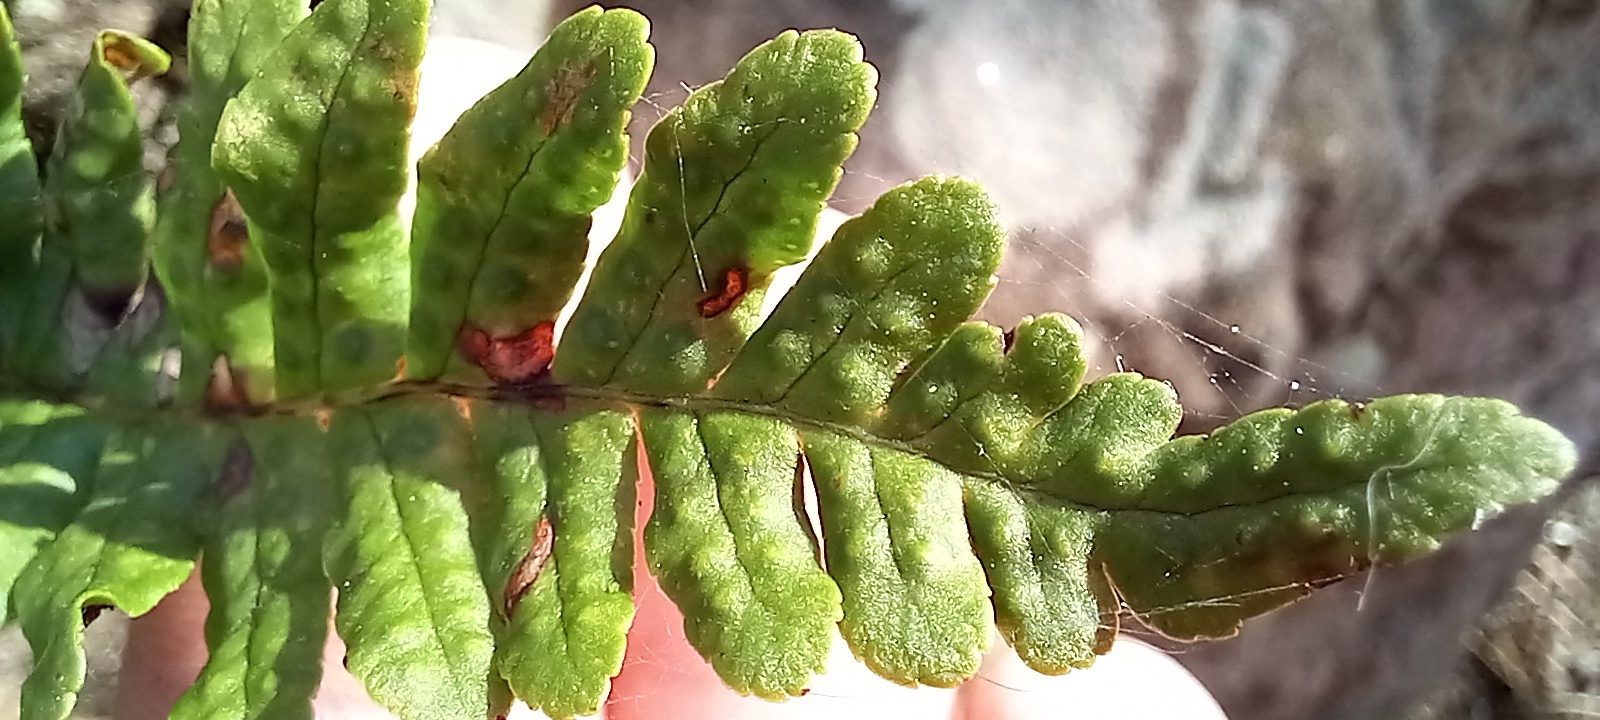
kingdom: Plantae
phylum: Tracheophyta
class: Polypodiopsida
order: Polypodiales
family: Polypodiaceae
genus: Polypodium
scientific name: Polypodium vulgare
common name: Common polypody
